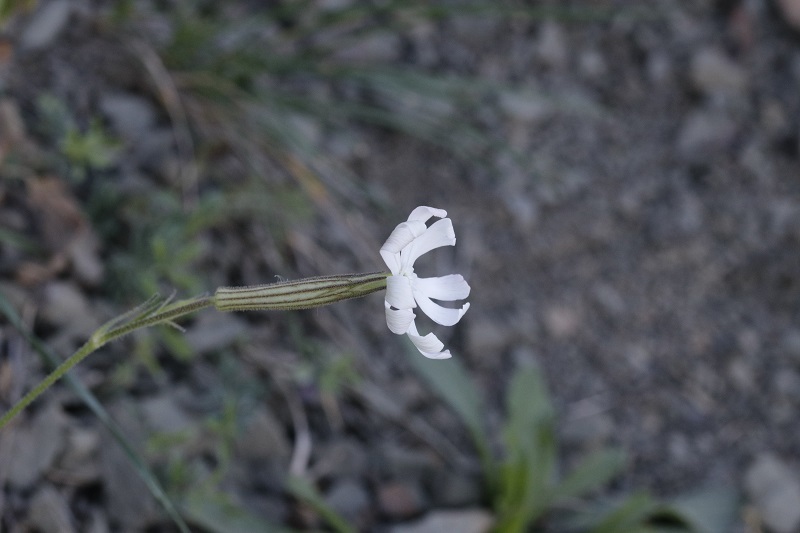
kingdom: Plantae
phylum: Tracheophyta
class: Magnoliopsida
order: Caryophyllales
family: Caryophyllaceae
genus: Silene
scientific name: Silene undulata
